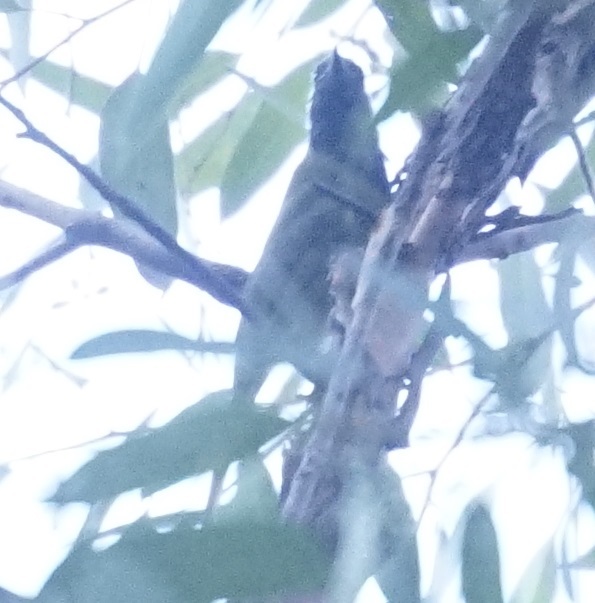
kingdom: Animalia
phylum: Chordata
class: Aves
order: Passeriformes
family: Meliphagidae
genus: Nesoptilotis
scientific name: Nesoptilotis leucotis
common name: White-eared honeyeater
